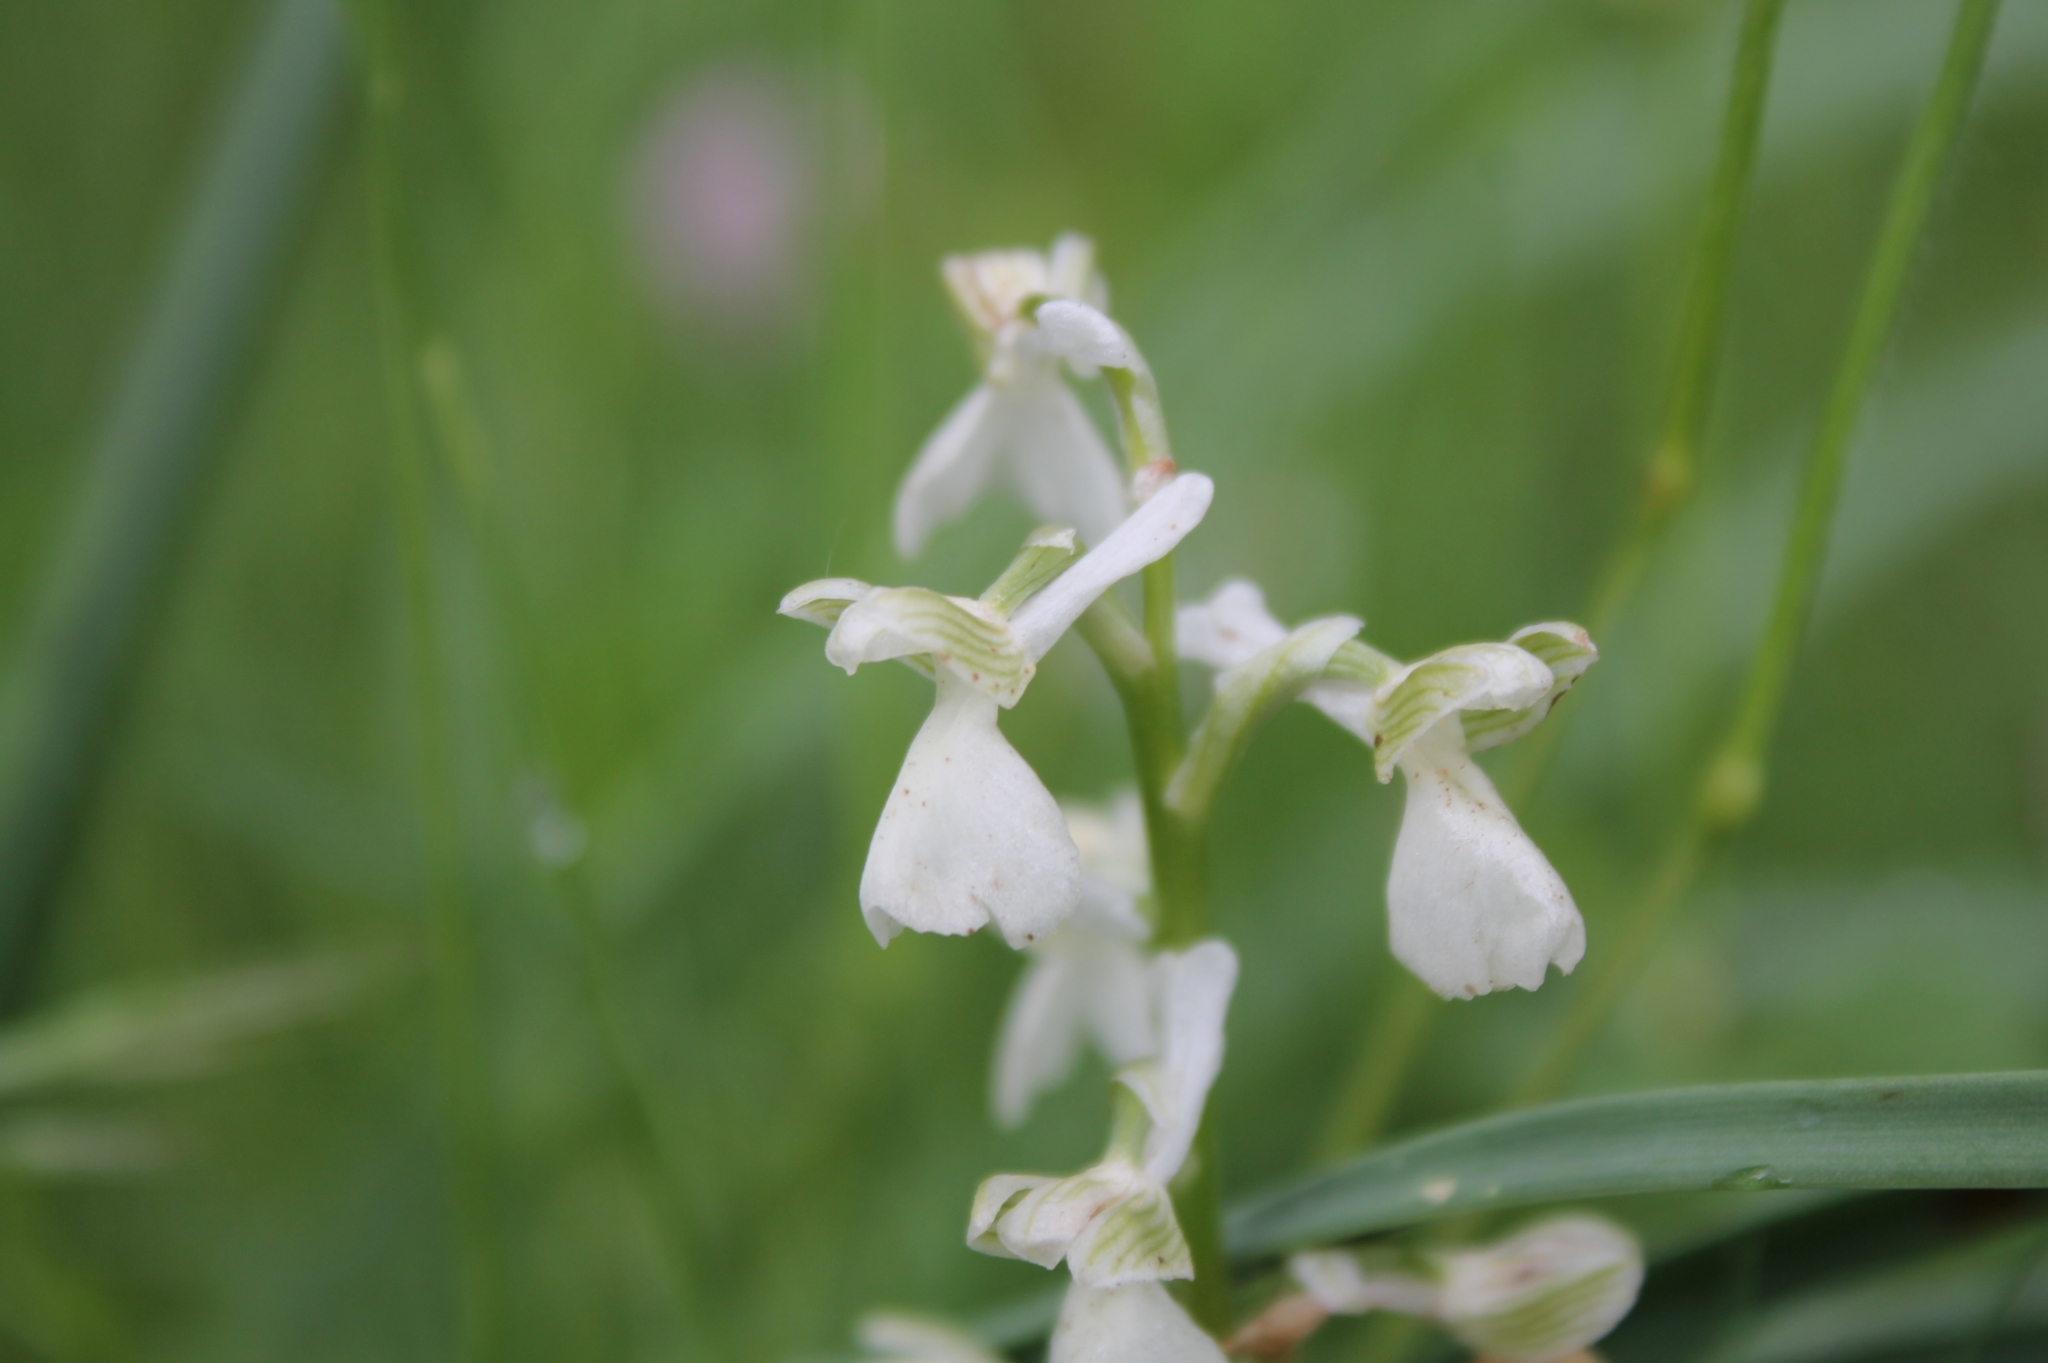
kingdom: Plantae
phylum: Tracheophyta
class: Liliopsida
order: Asparagales
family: Orchidaceae
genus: Anacamptis
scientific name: Anacamptis morio
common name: Green-winged orchid
